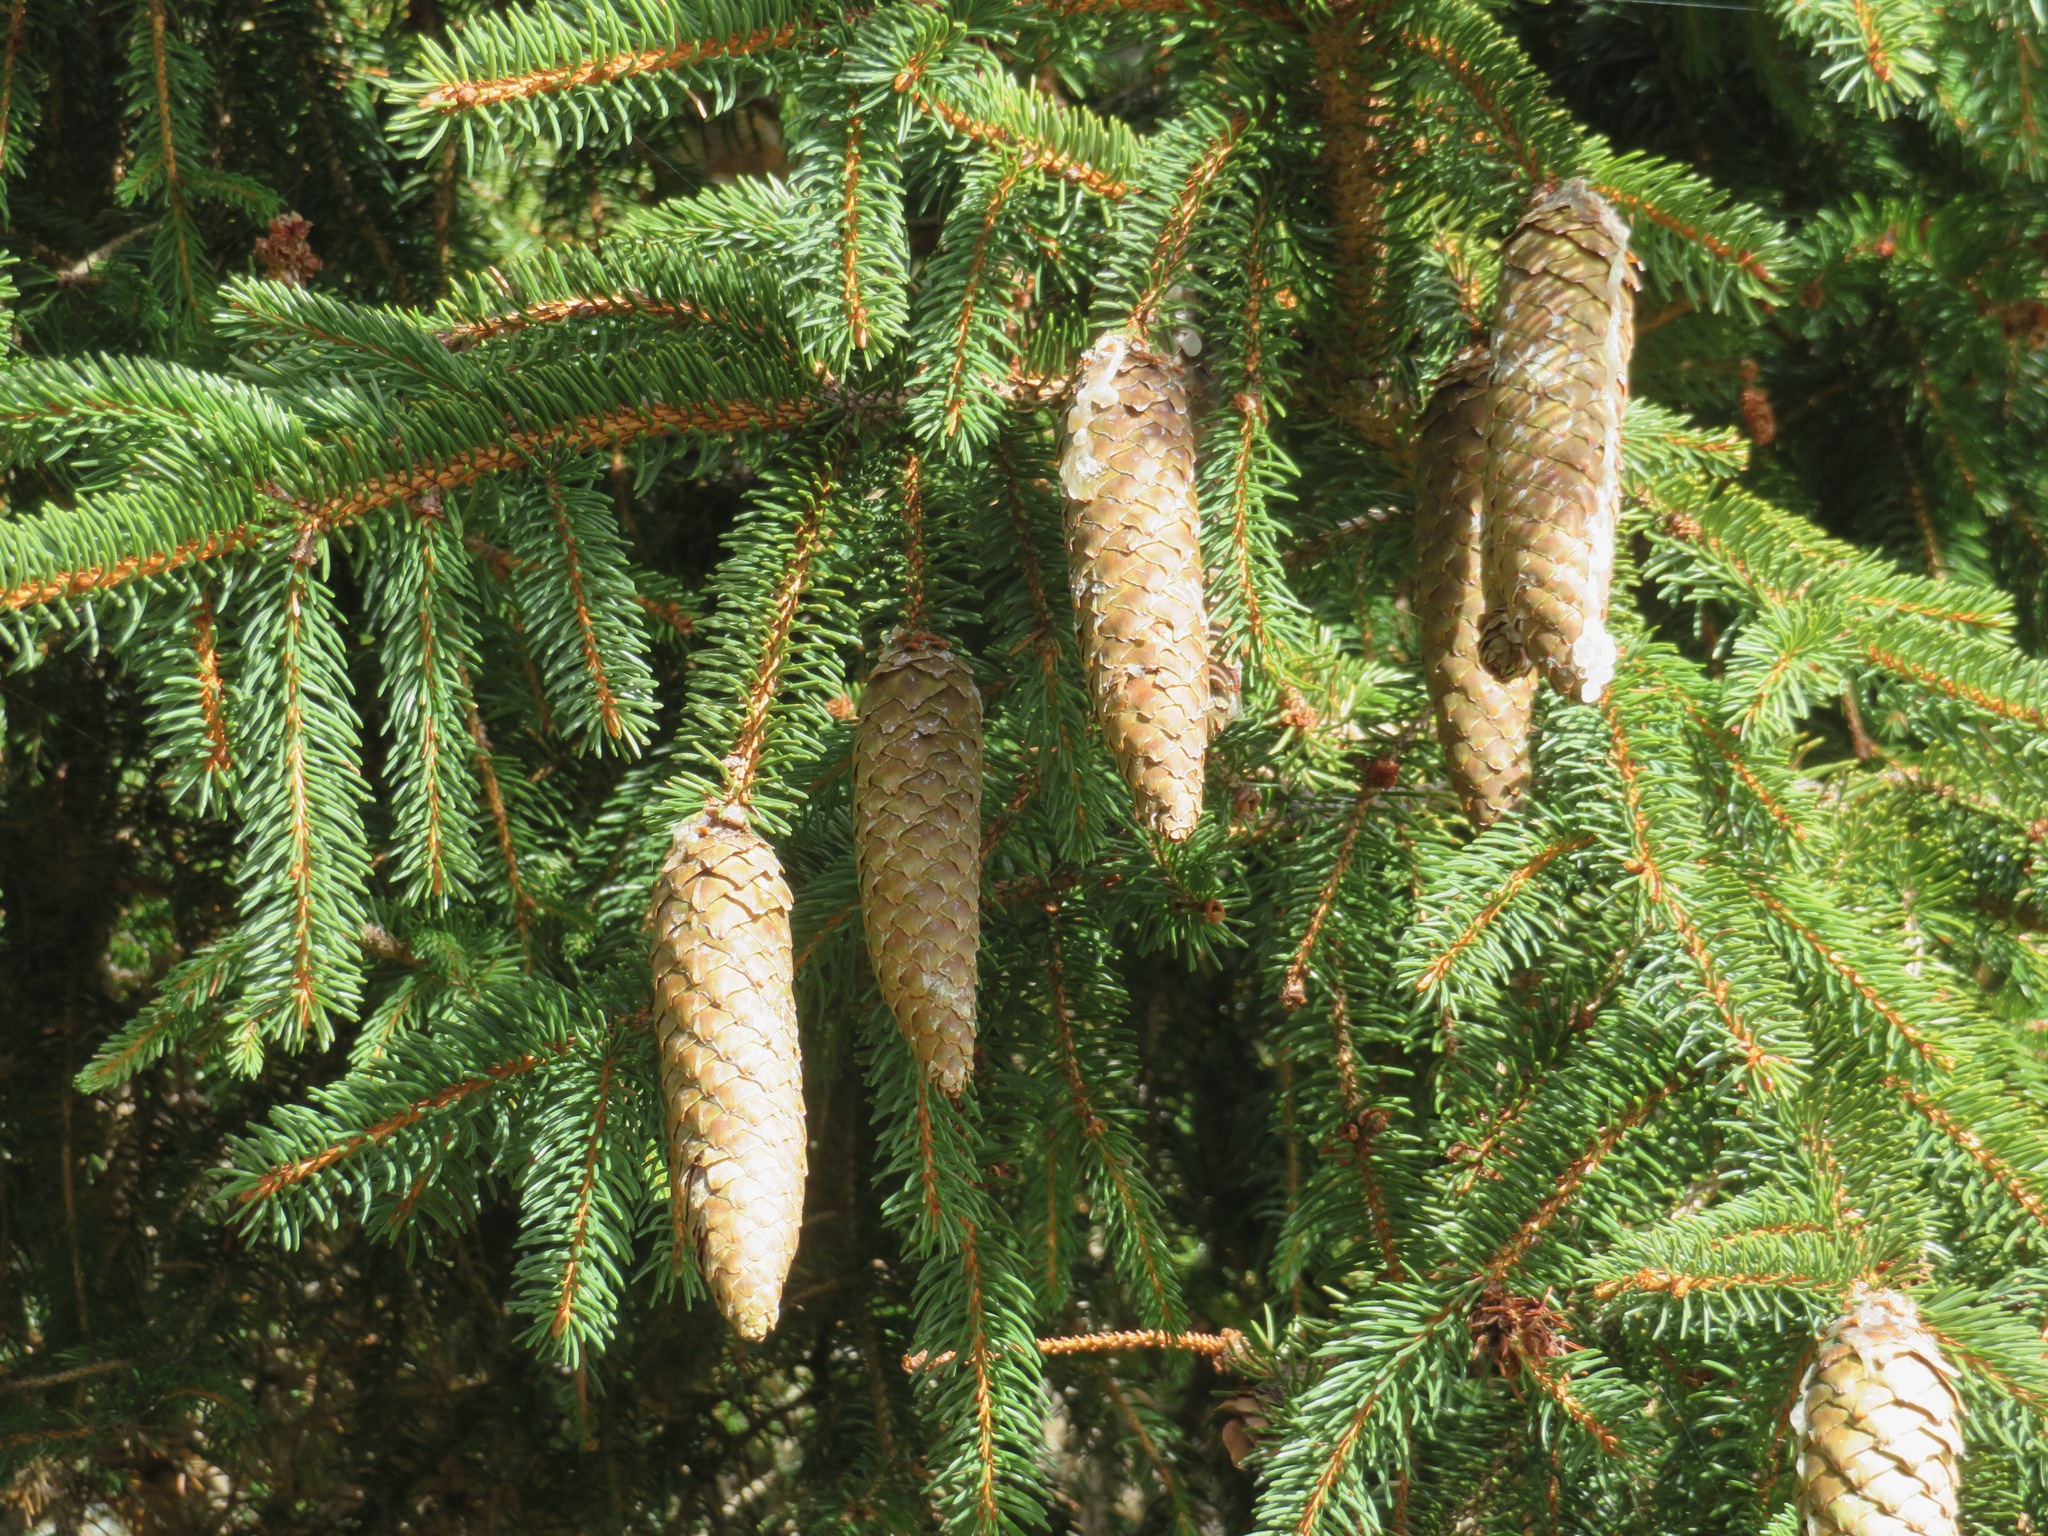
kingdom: Plantae
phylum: Tracheophyta
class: Pinopsida
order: Pinales
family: Pinaceae
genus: Picea
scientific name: Picea abies
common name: Norway spruce
